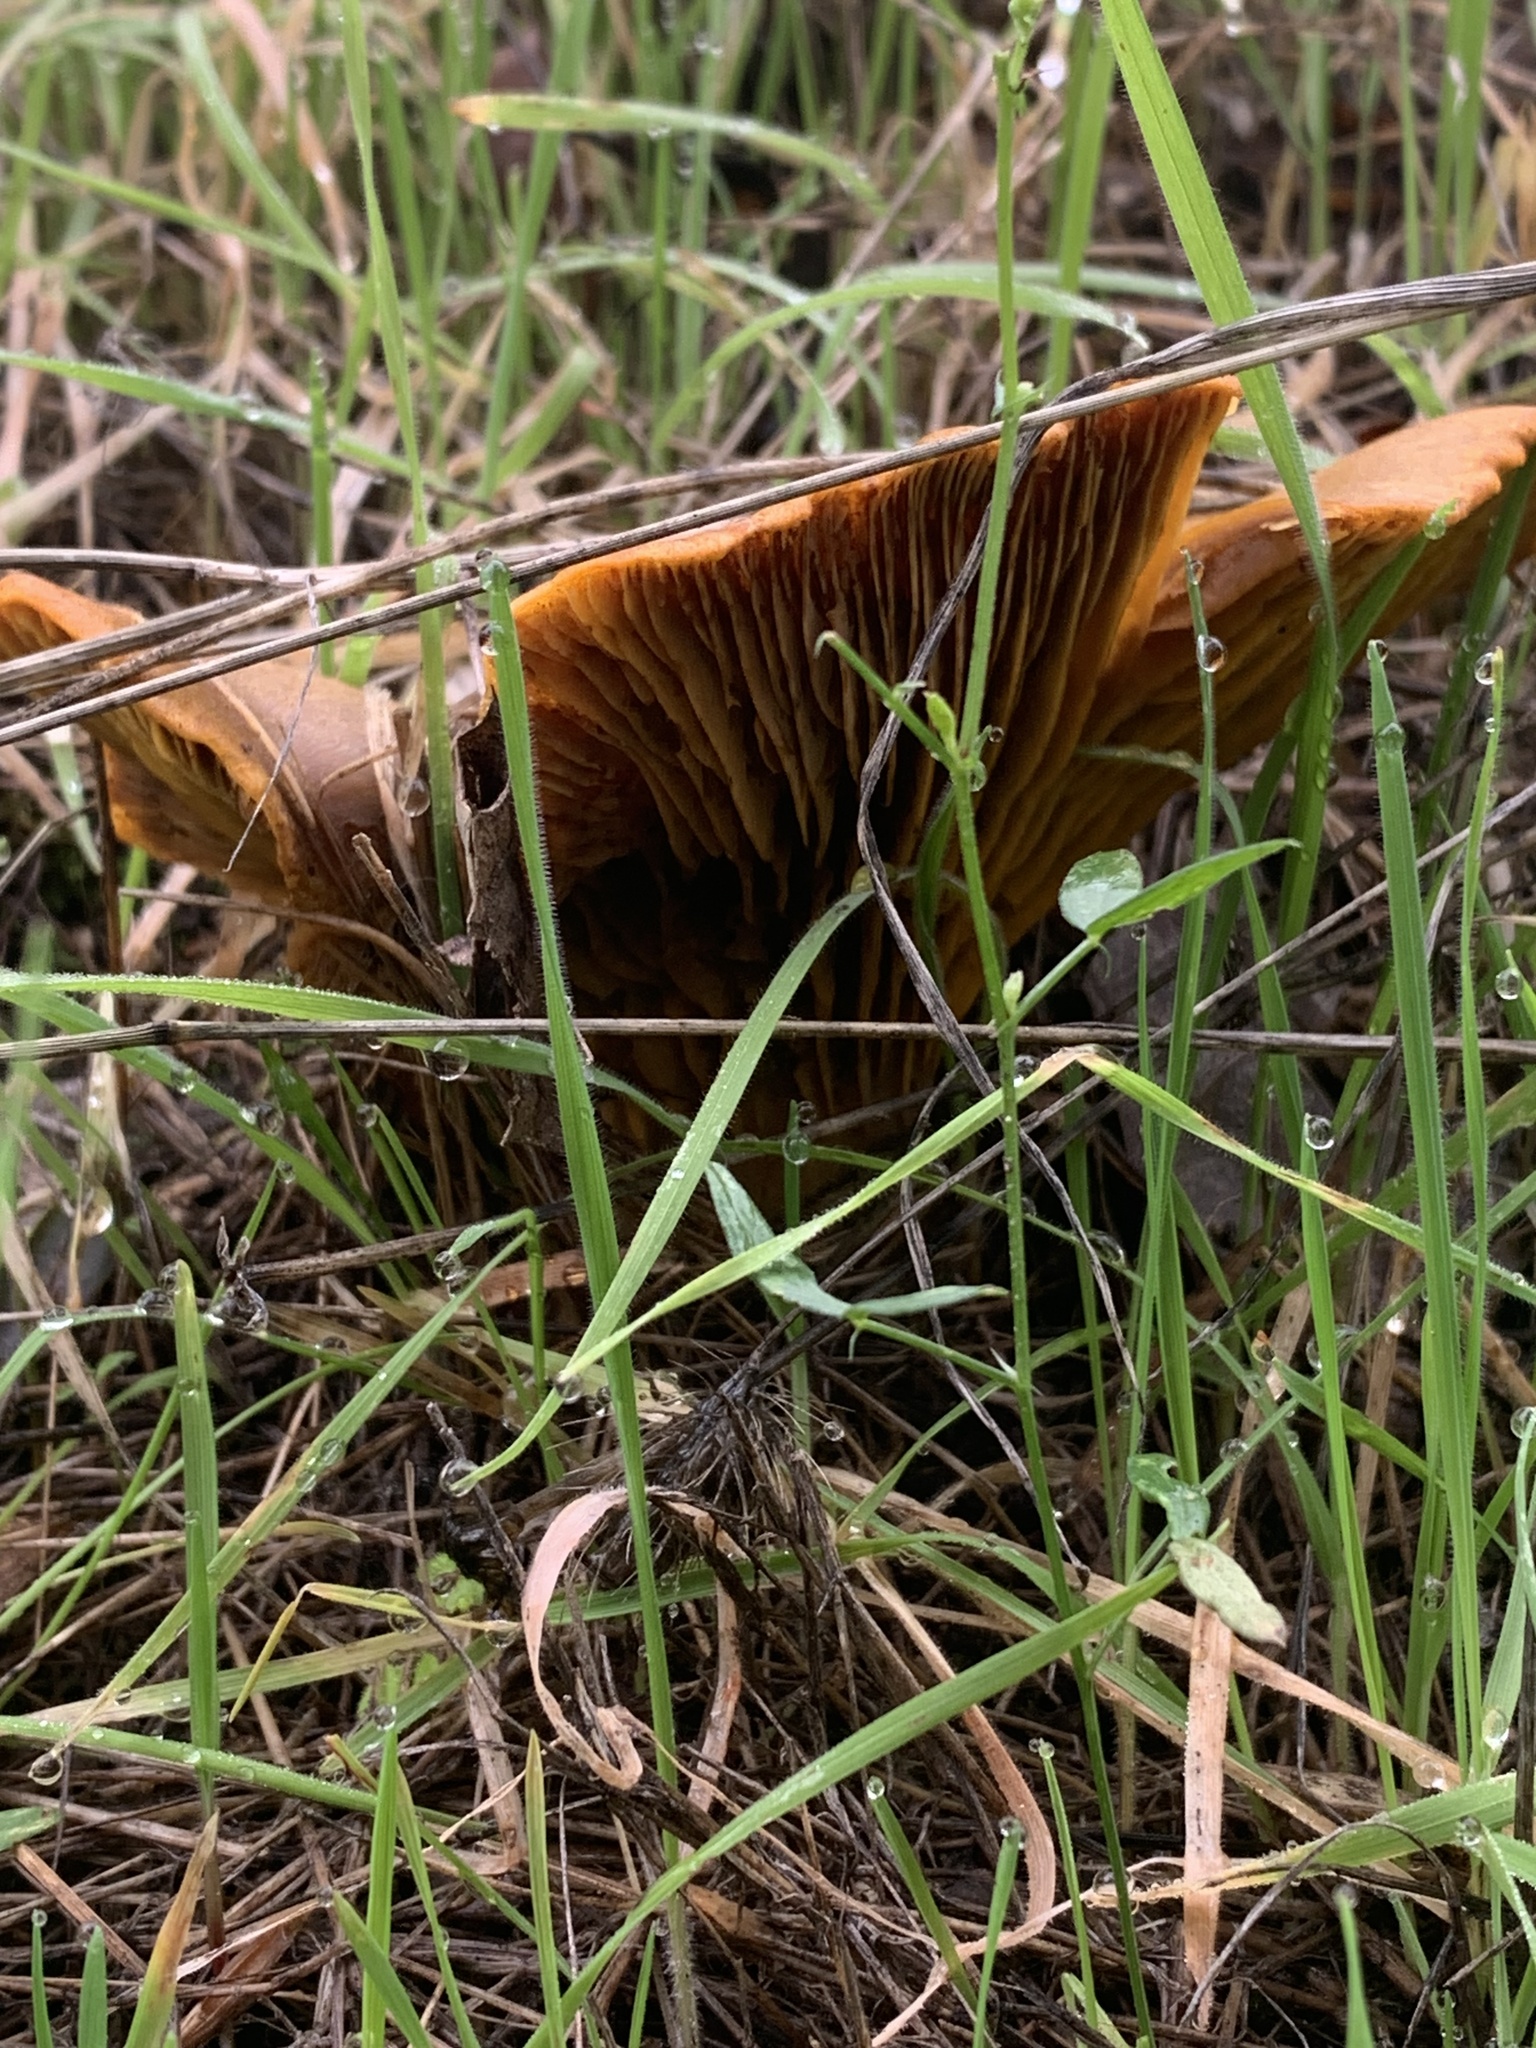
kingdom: Fungi
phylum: Basidiomycota
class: Agaricomycetes
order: Agaricales
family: Omphalotaceae
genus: Omphalotus
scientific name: Omphalotus olivascens
